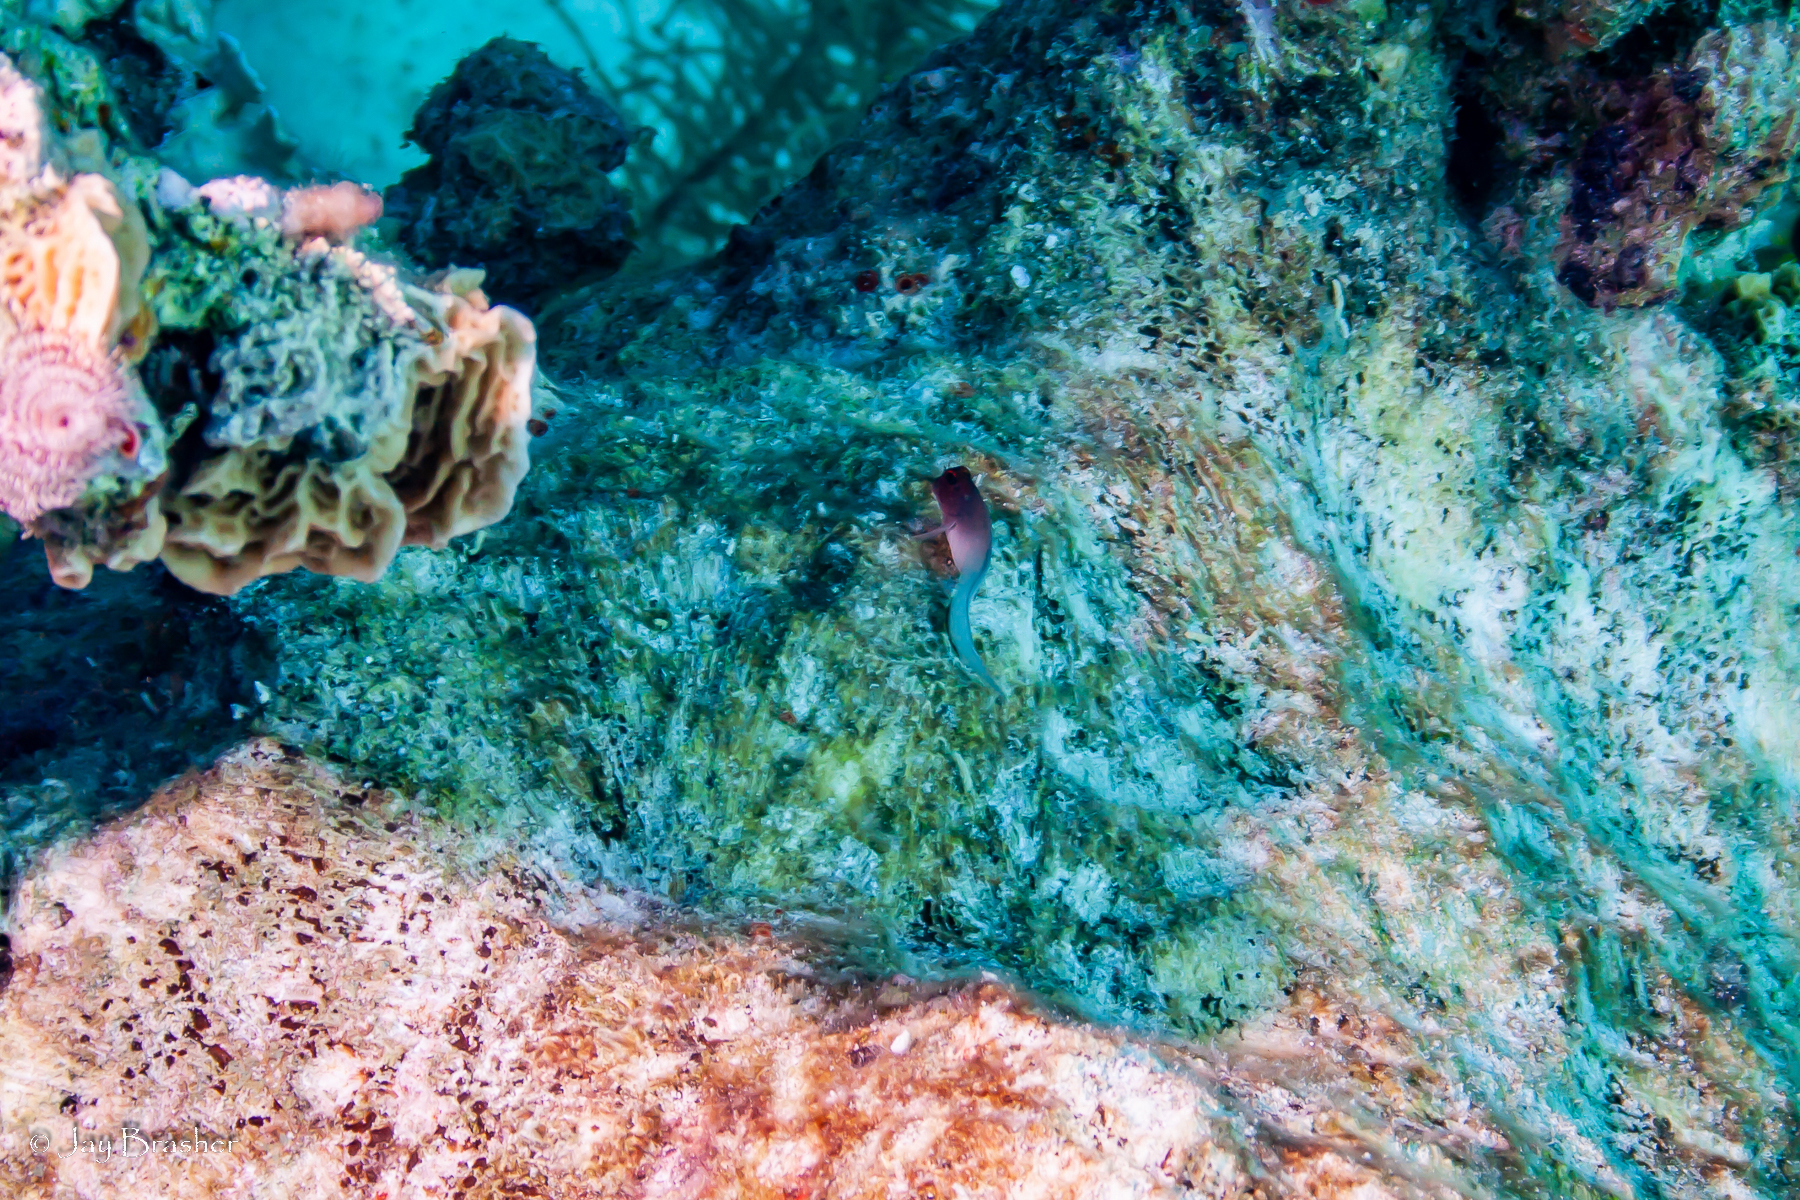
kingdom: Animalia
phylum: Chordata
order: Perciformes
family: Blenniidae
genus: Ophioblennius
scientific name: Ophioblennius macclurei
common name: Redlip blenny
